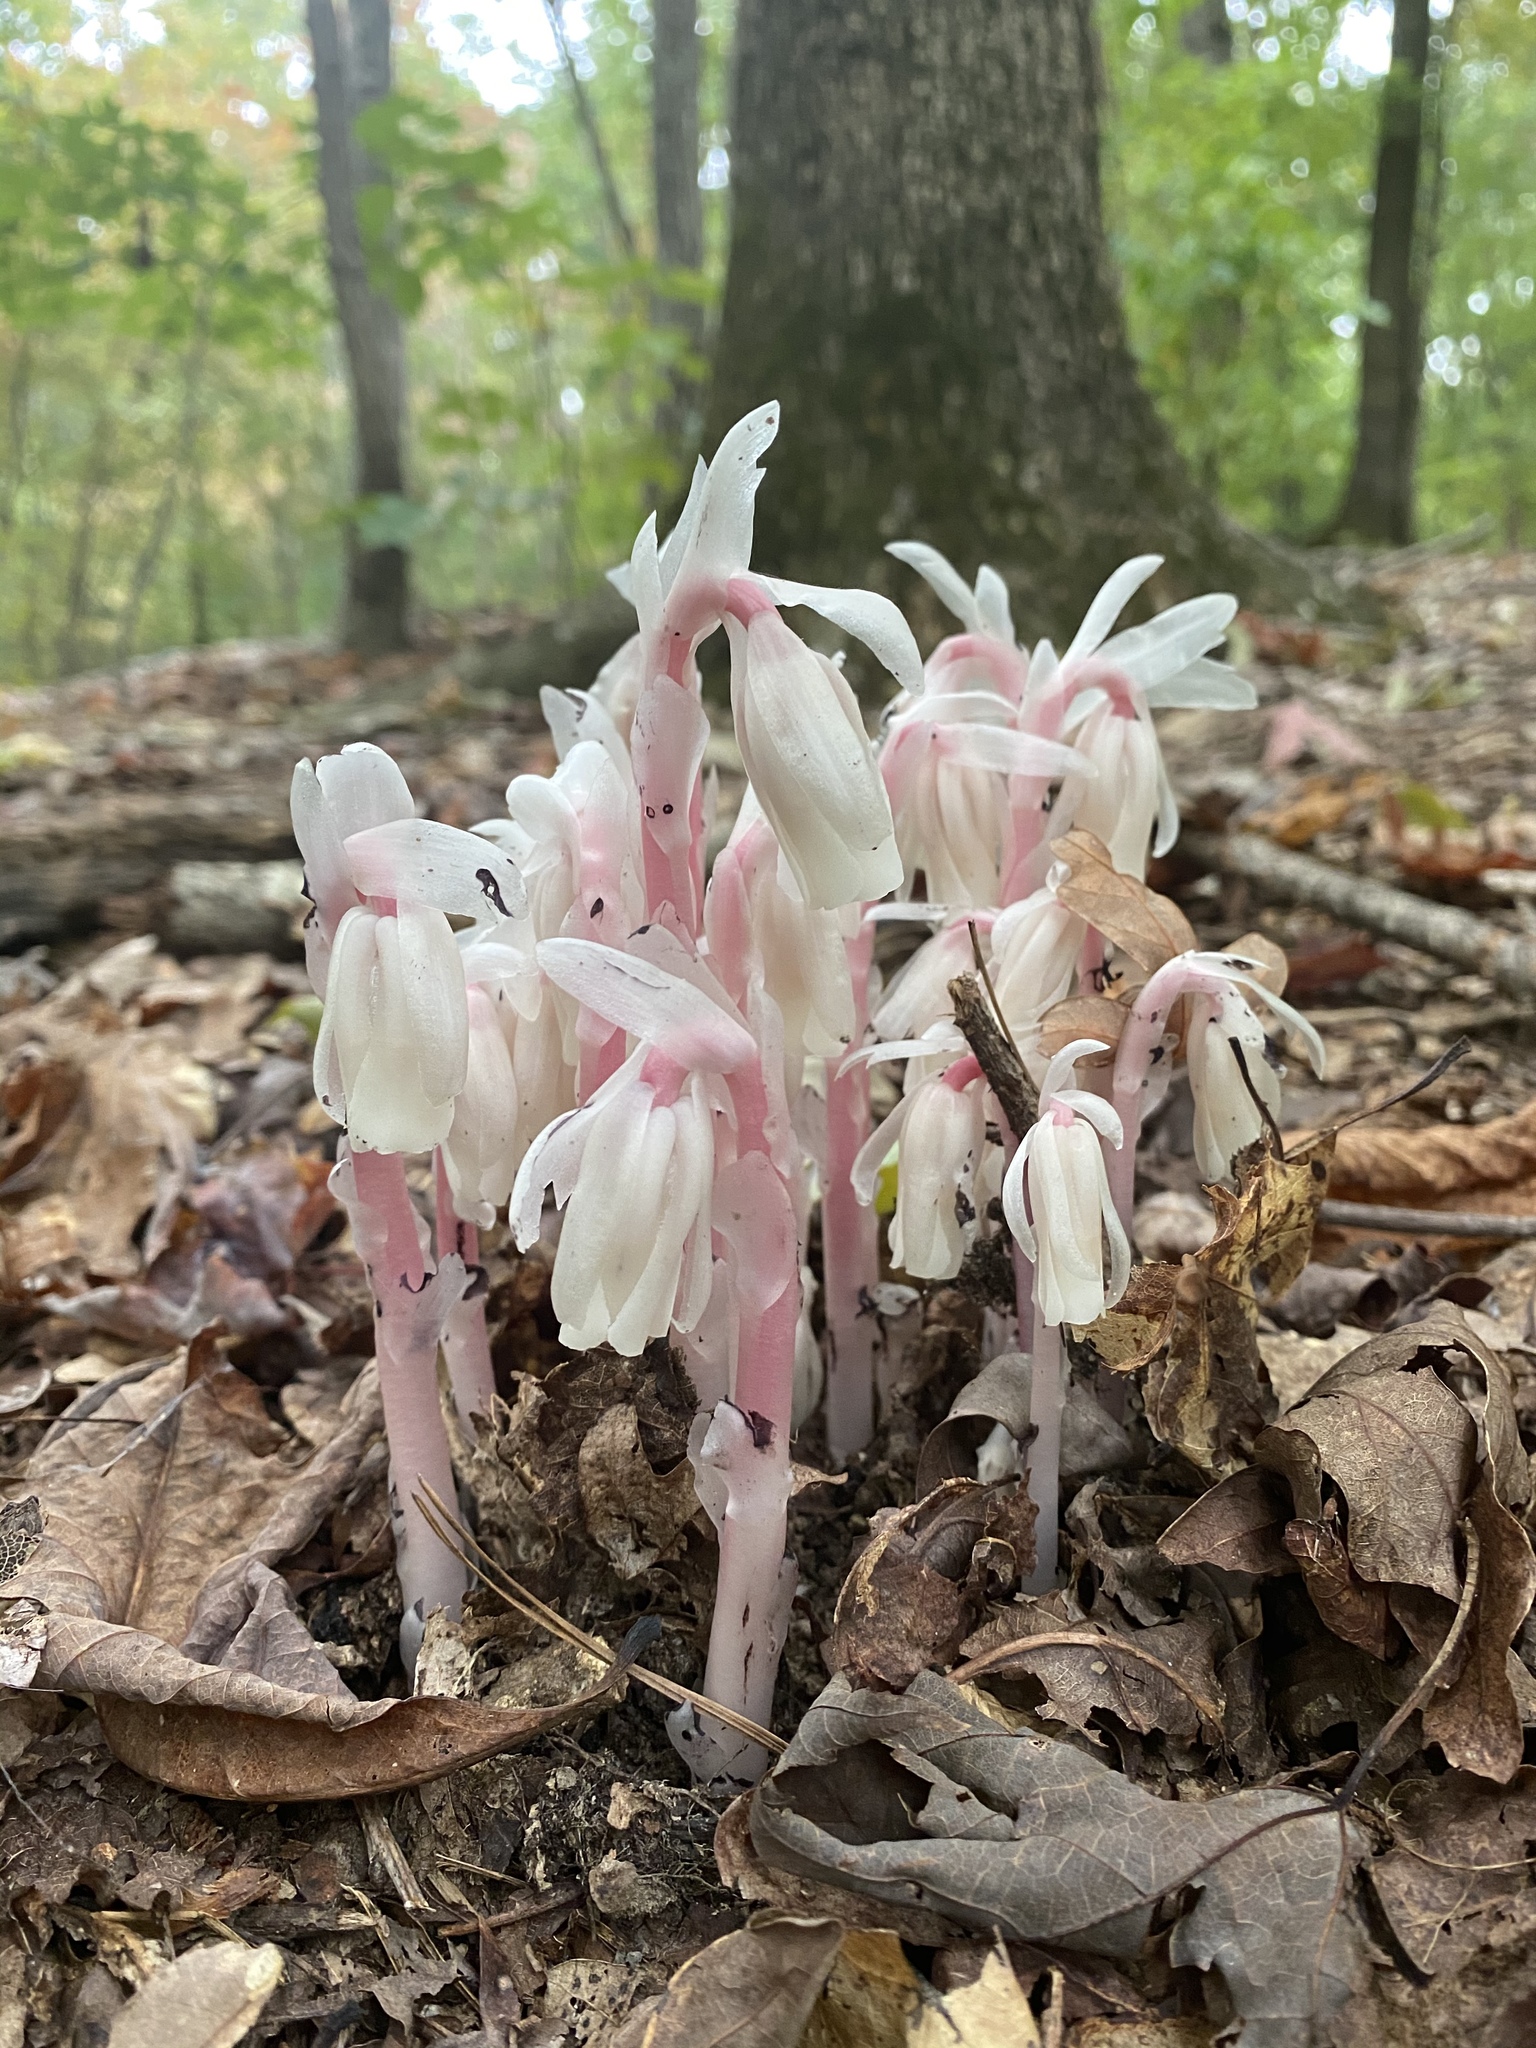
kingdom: Plantae
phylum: Tracheophyta
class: Magnoliopsida
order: Ericales
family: Ericaceae
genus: Monotropa
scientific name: Monotropa uniflora
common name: Convulsion root
